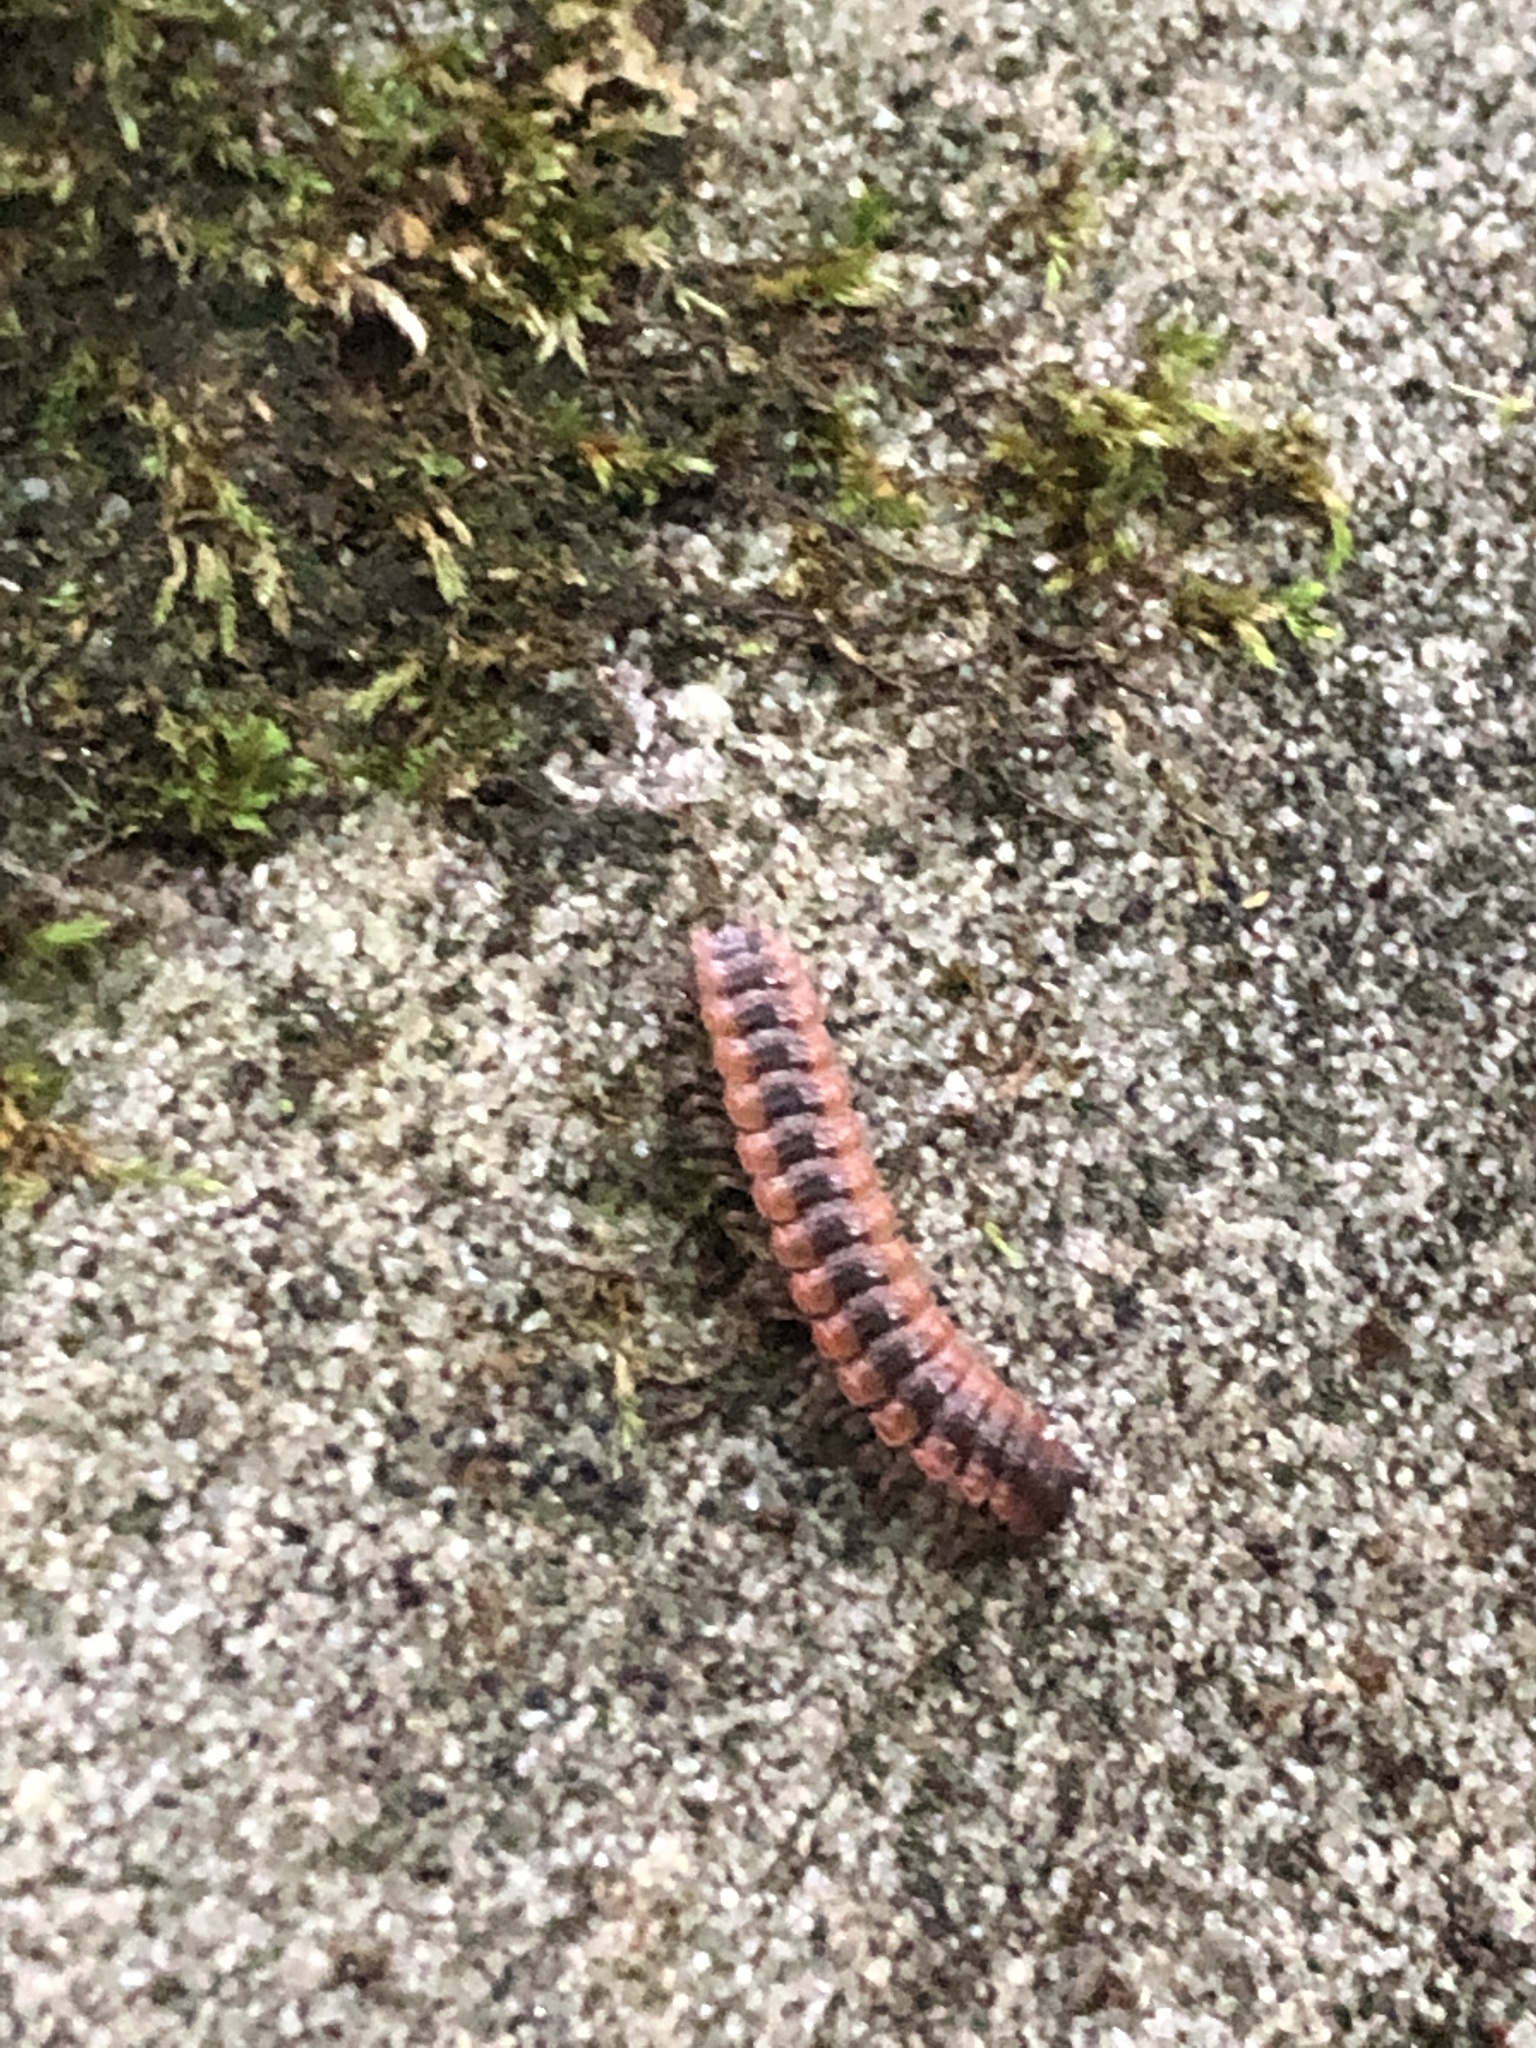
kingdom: Animalia
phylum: Arthropoda
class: Diplopoda
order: Polydesmida
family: Polydesmidae
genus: Pseudopolydesmus
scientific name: Pseudopolydesmus canadensis
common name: Canadian flat-back millipede
